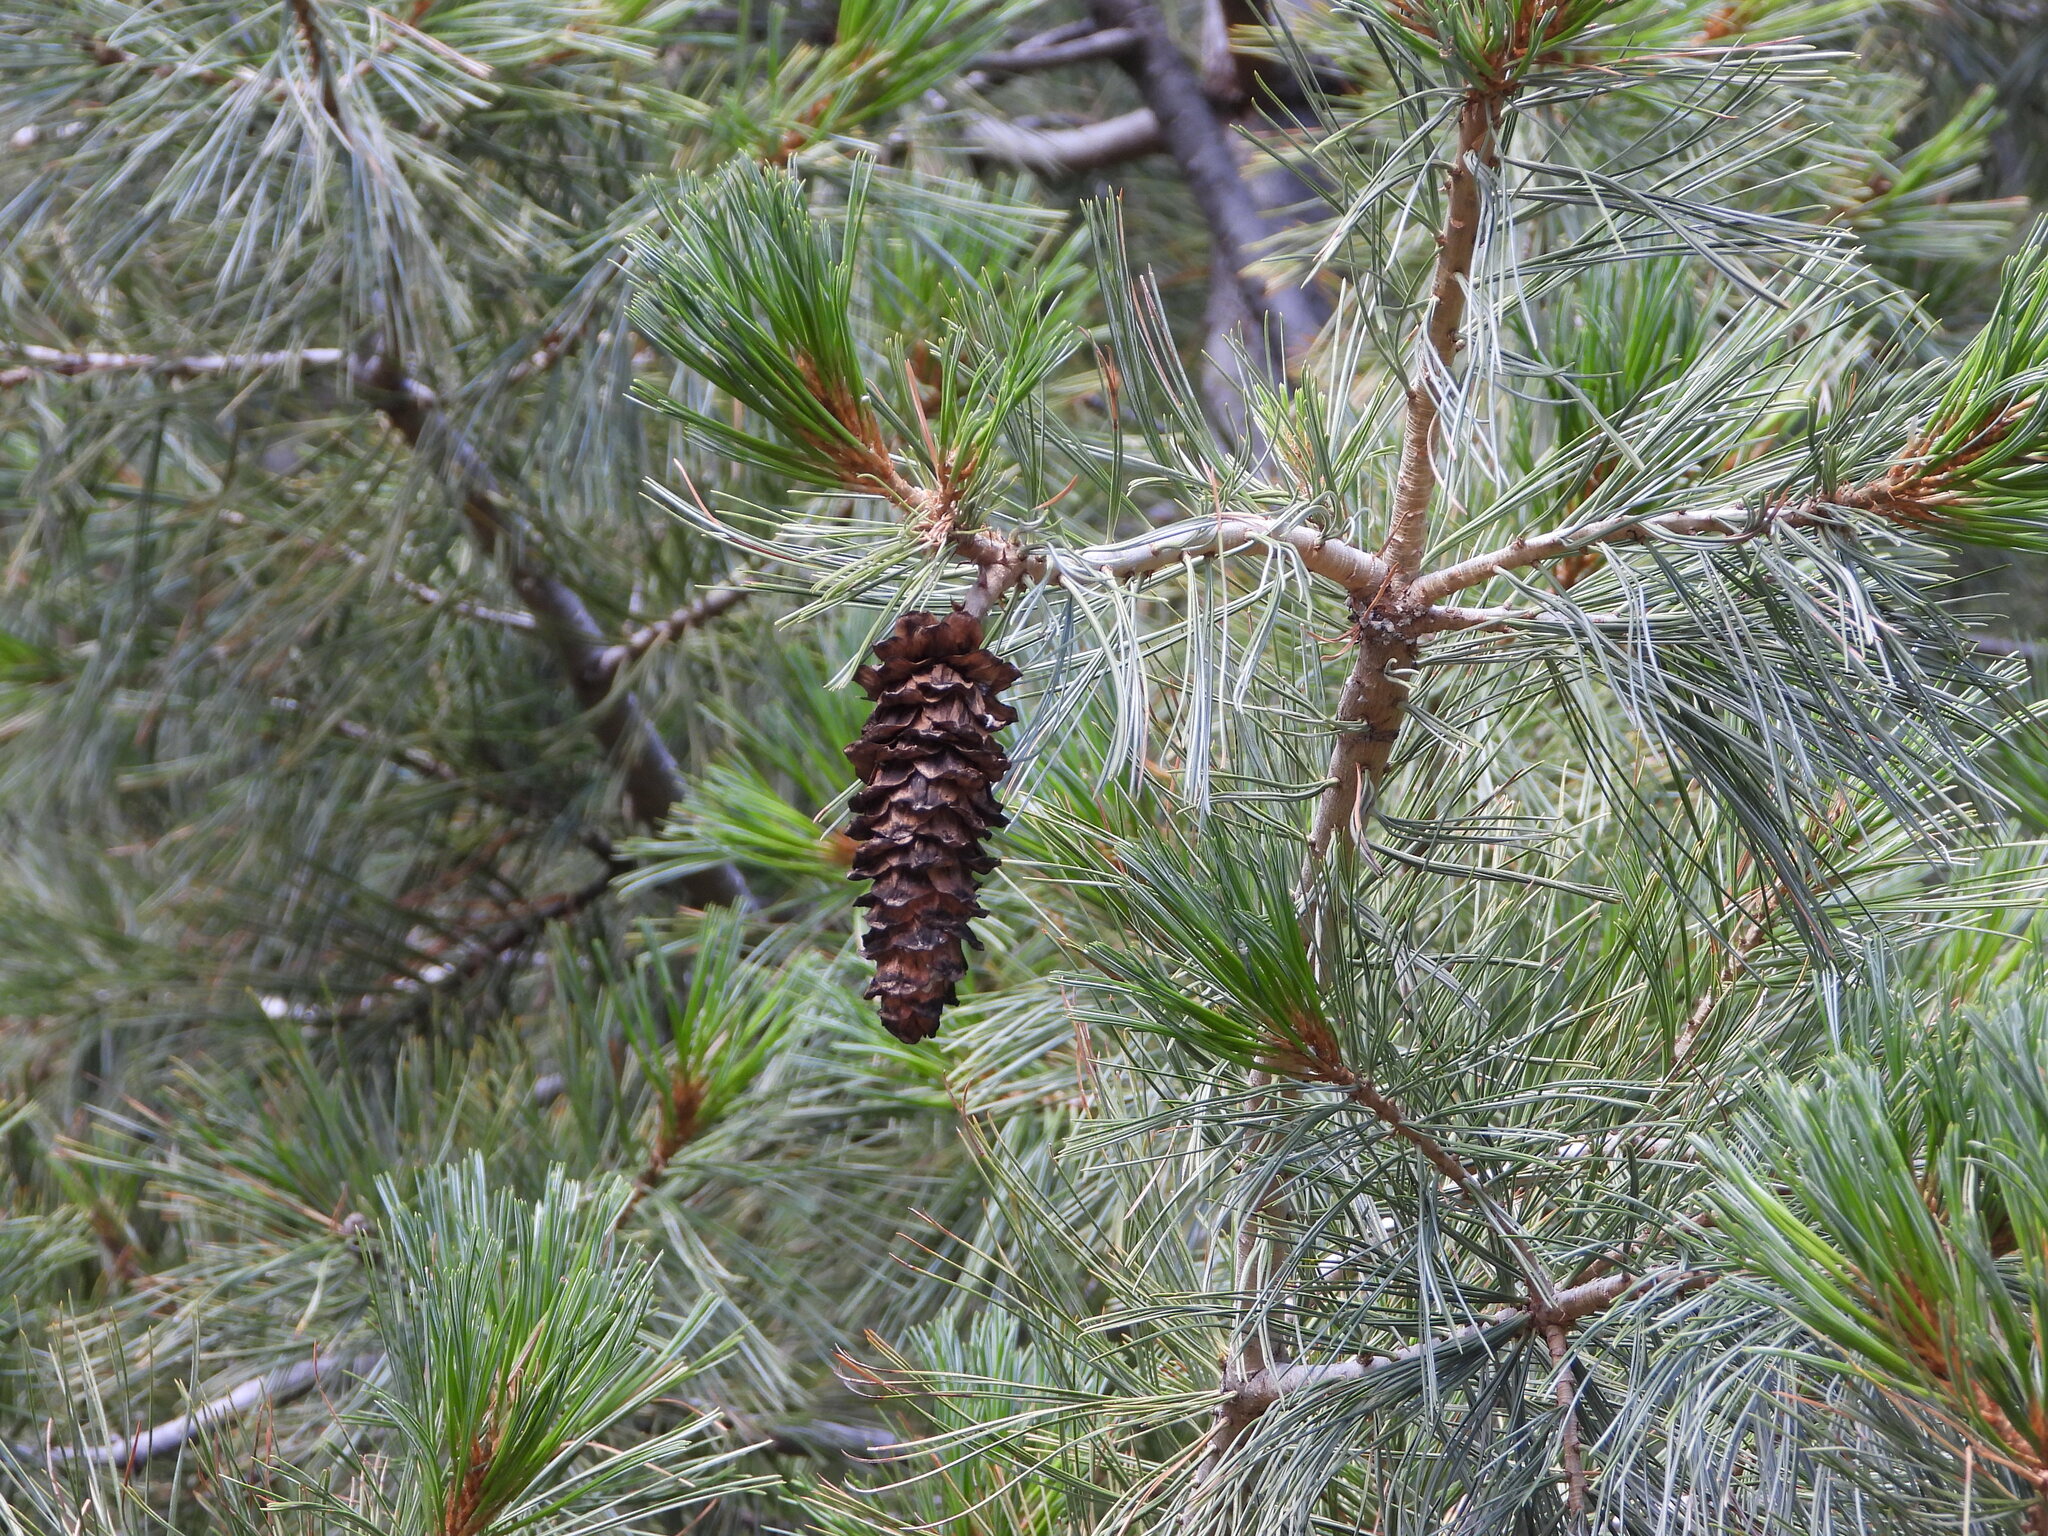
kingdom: Plantae
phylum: Tracheophyta
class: Pinopsida
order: Pinales
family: Pinaceae
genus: Pinus
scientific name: Pinus strobiformis
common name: Southwestern white pine
